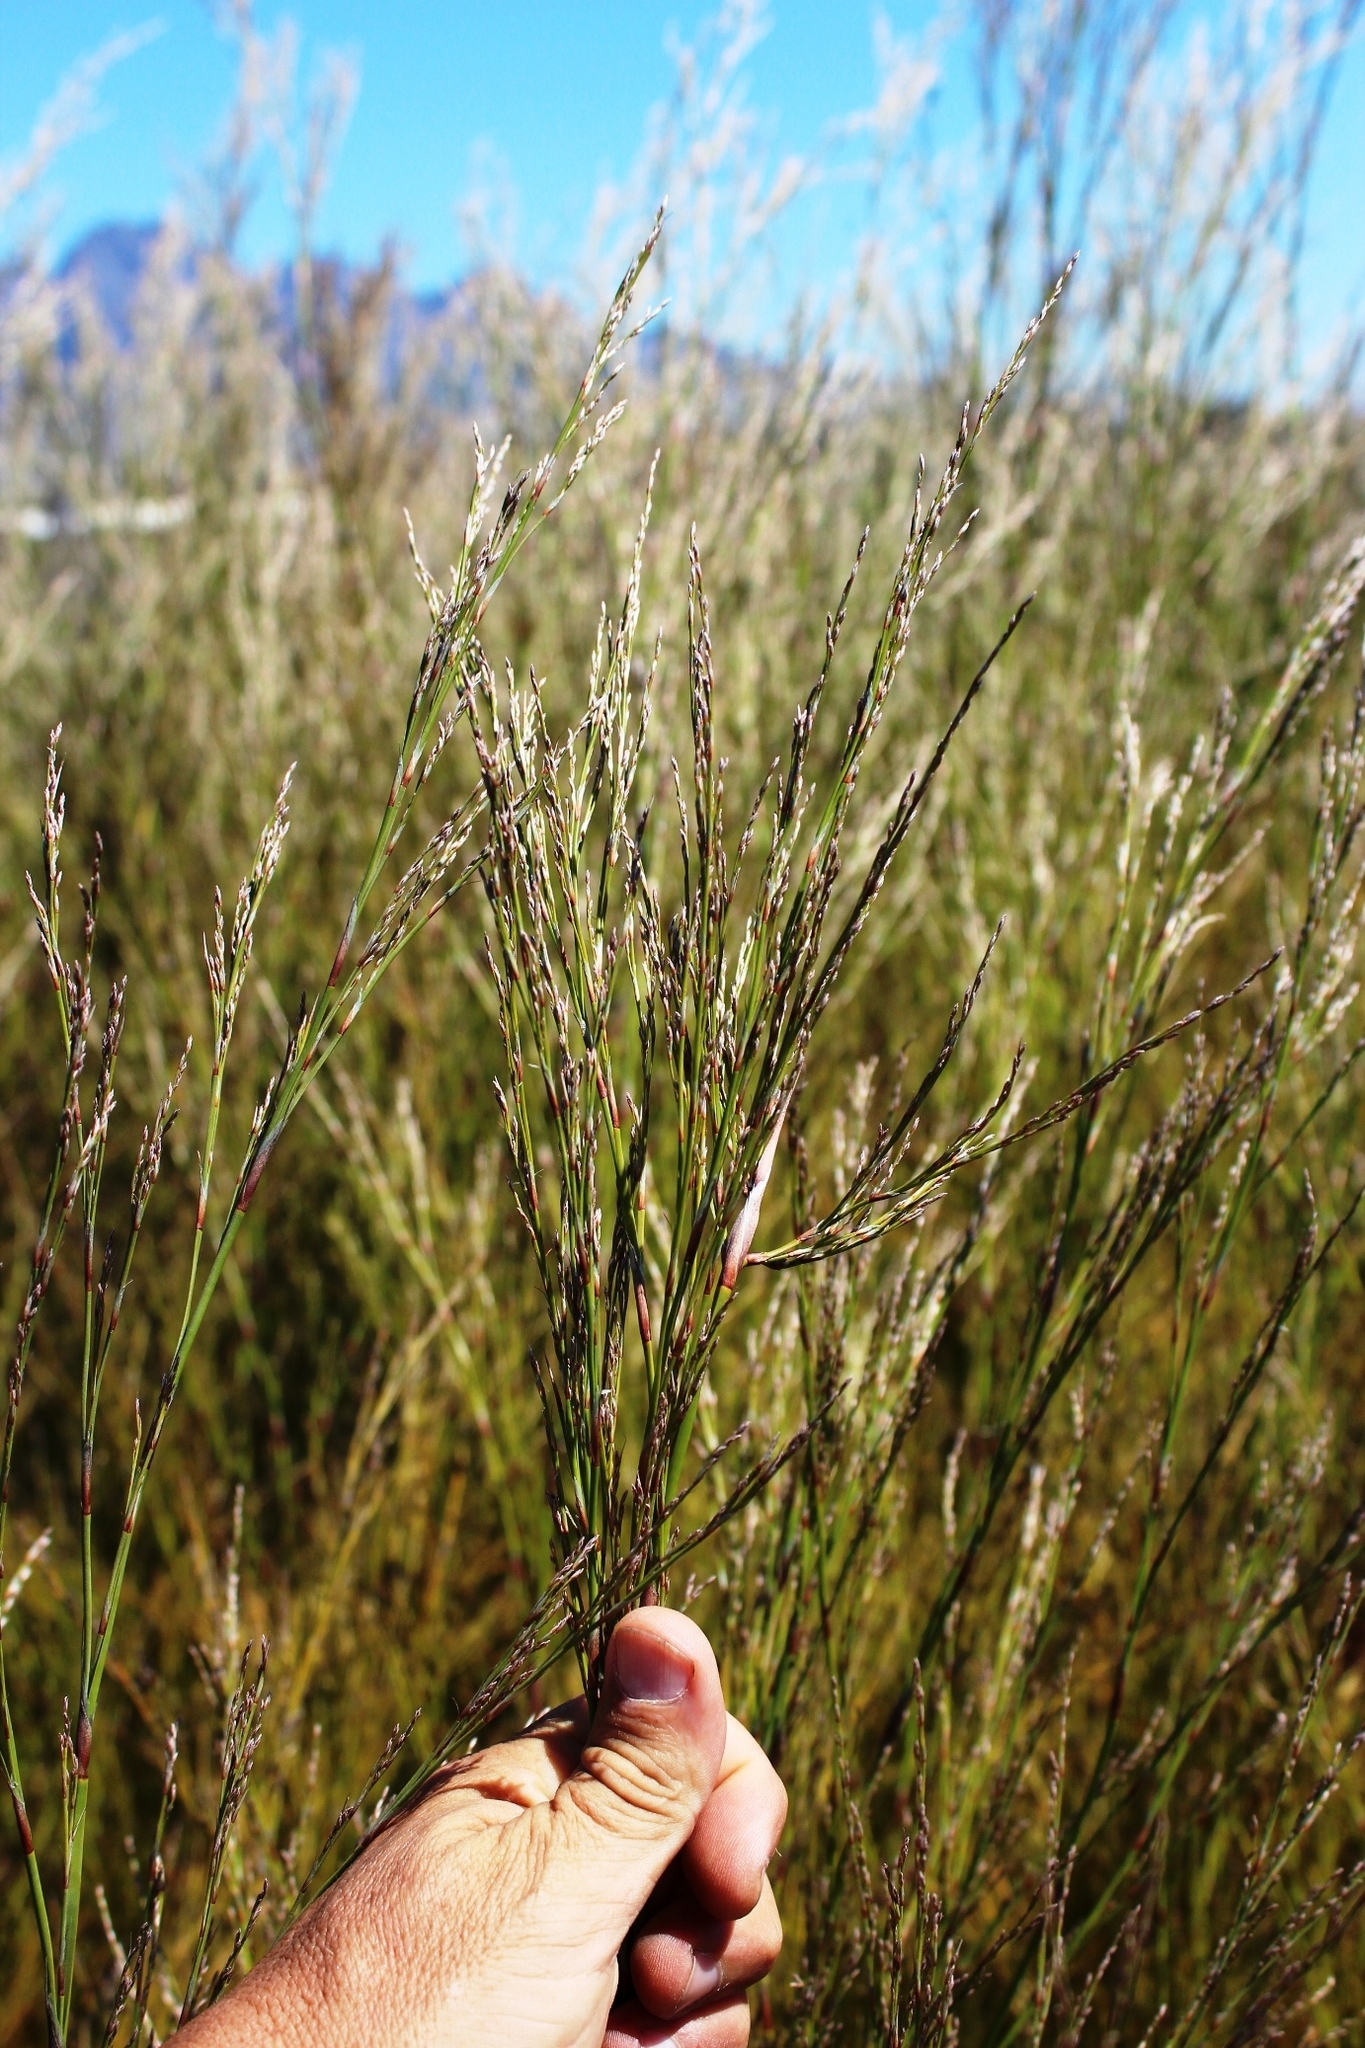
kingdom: Plantae
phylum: Tracheophyta
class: Liliopsida
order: Poales
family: Restionaceae
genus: Restio
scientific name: Restio paniculatus
